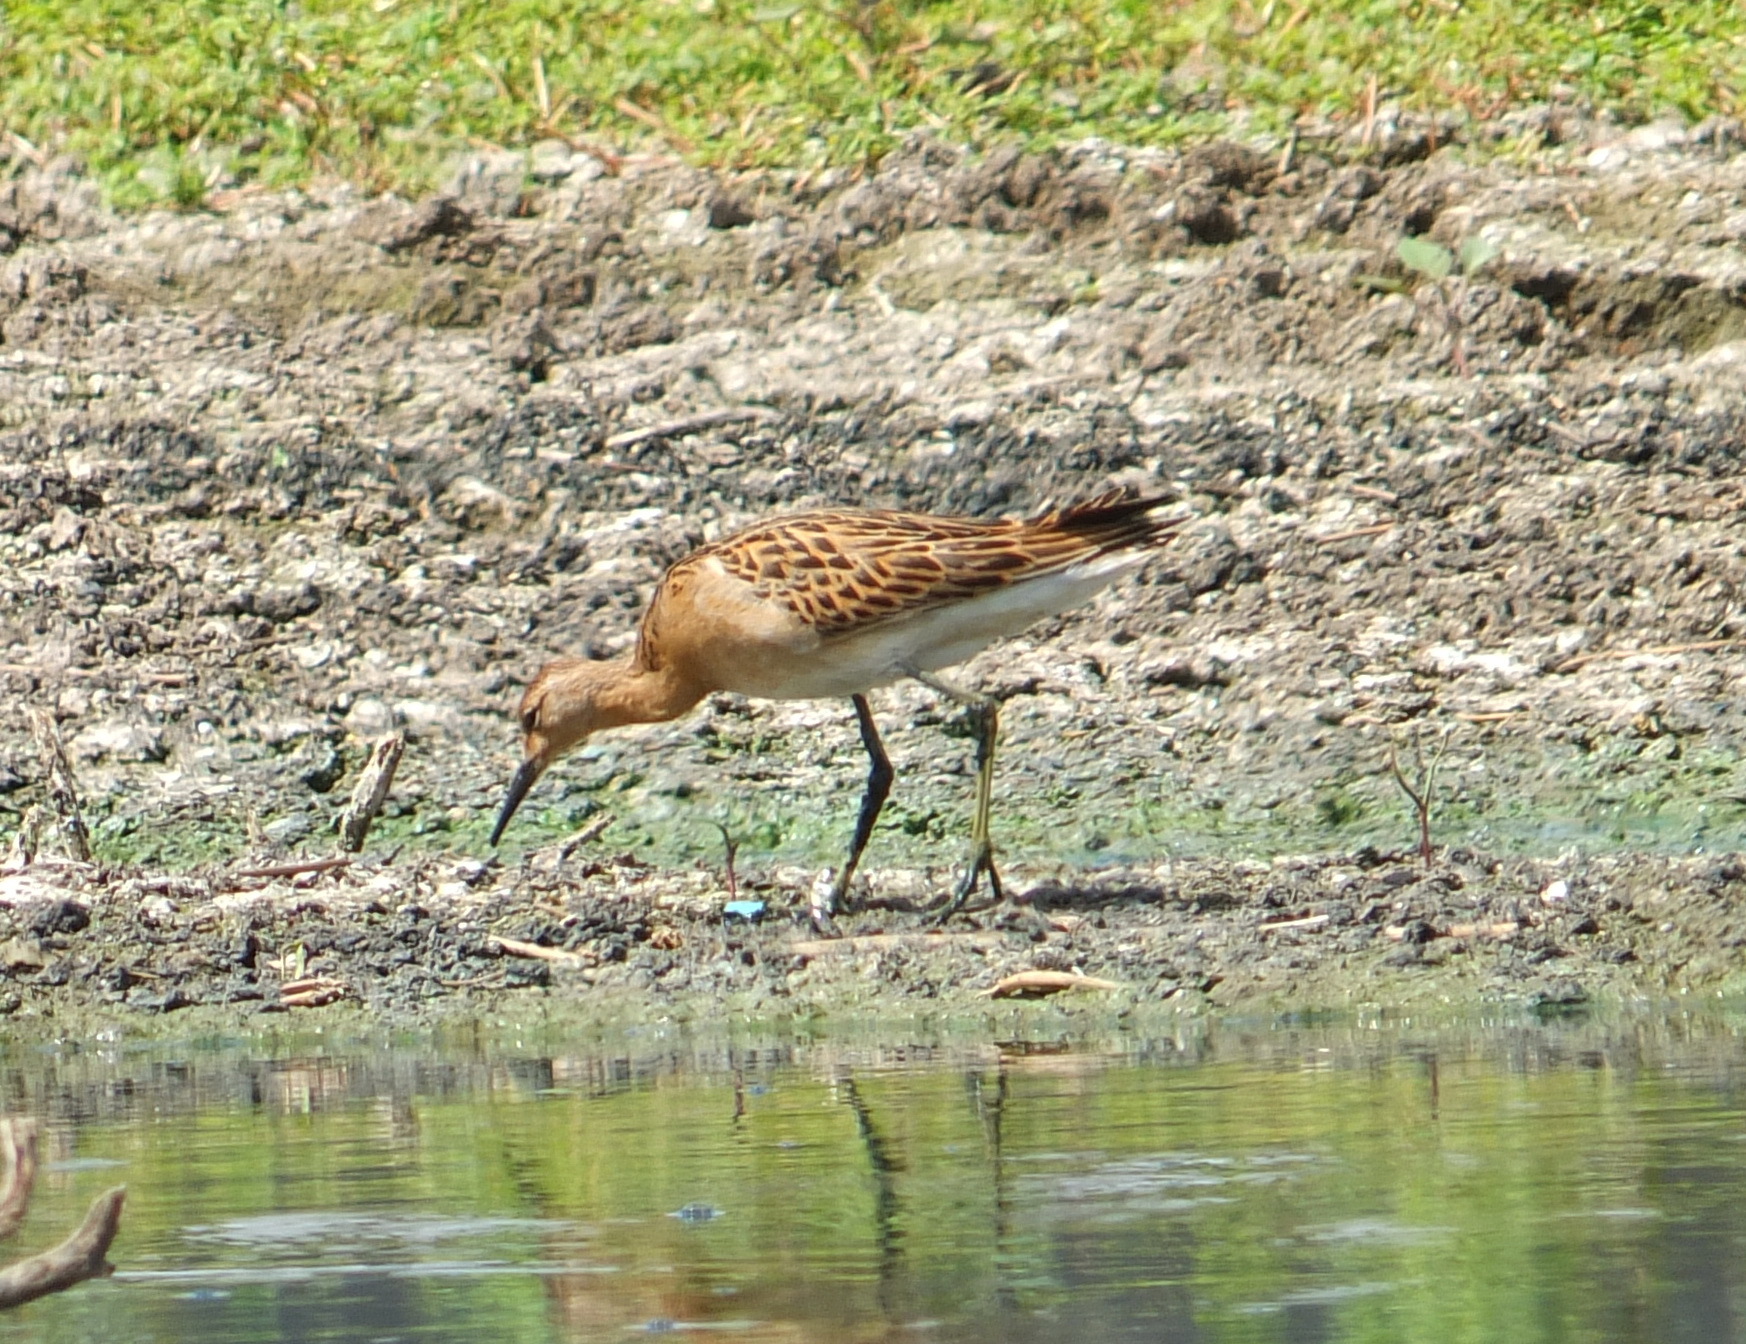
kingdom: Animalia
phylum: Chordata
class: Aves
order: Charadriiformes
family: Scolopacidae
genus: Calidris
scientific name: Calidris pugnax
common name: Ruff
